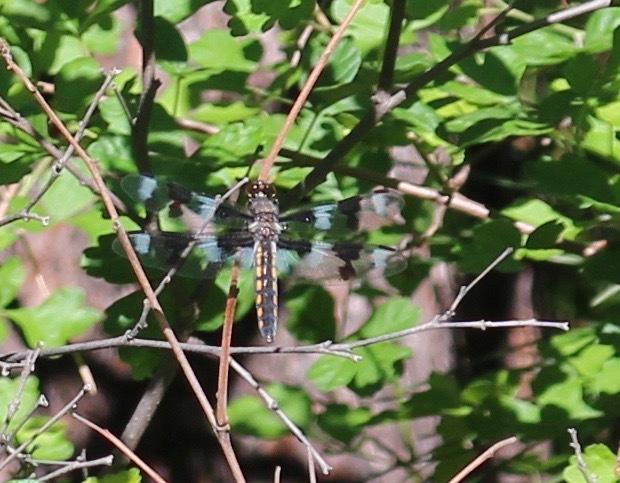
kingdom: Animalia
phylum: Arthropoda
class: Insecta
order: Odonata
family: Libellulidae
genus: Libellula
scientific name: Libellula forensis
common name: Eight-spotted skimmer
